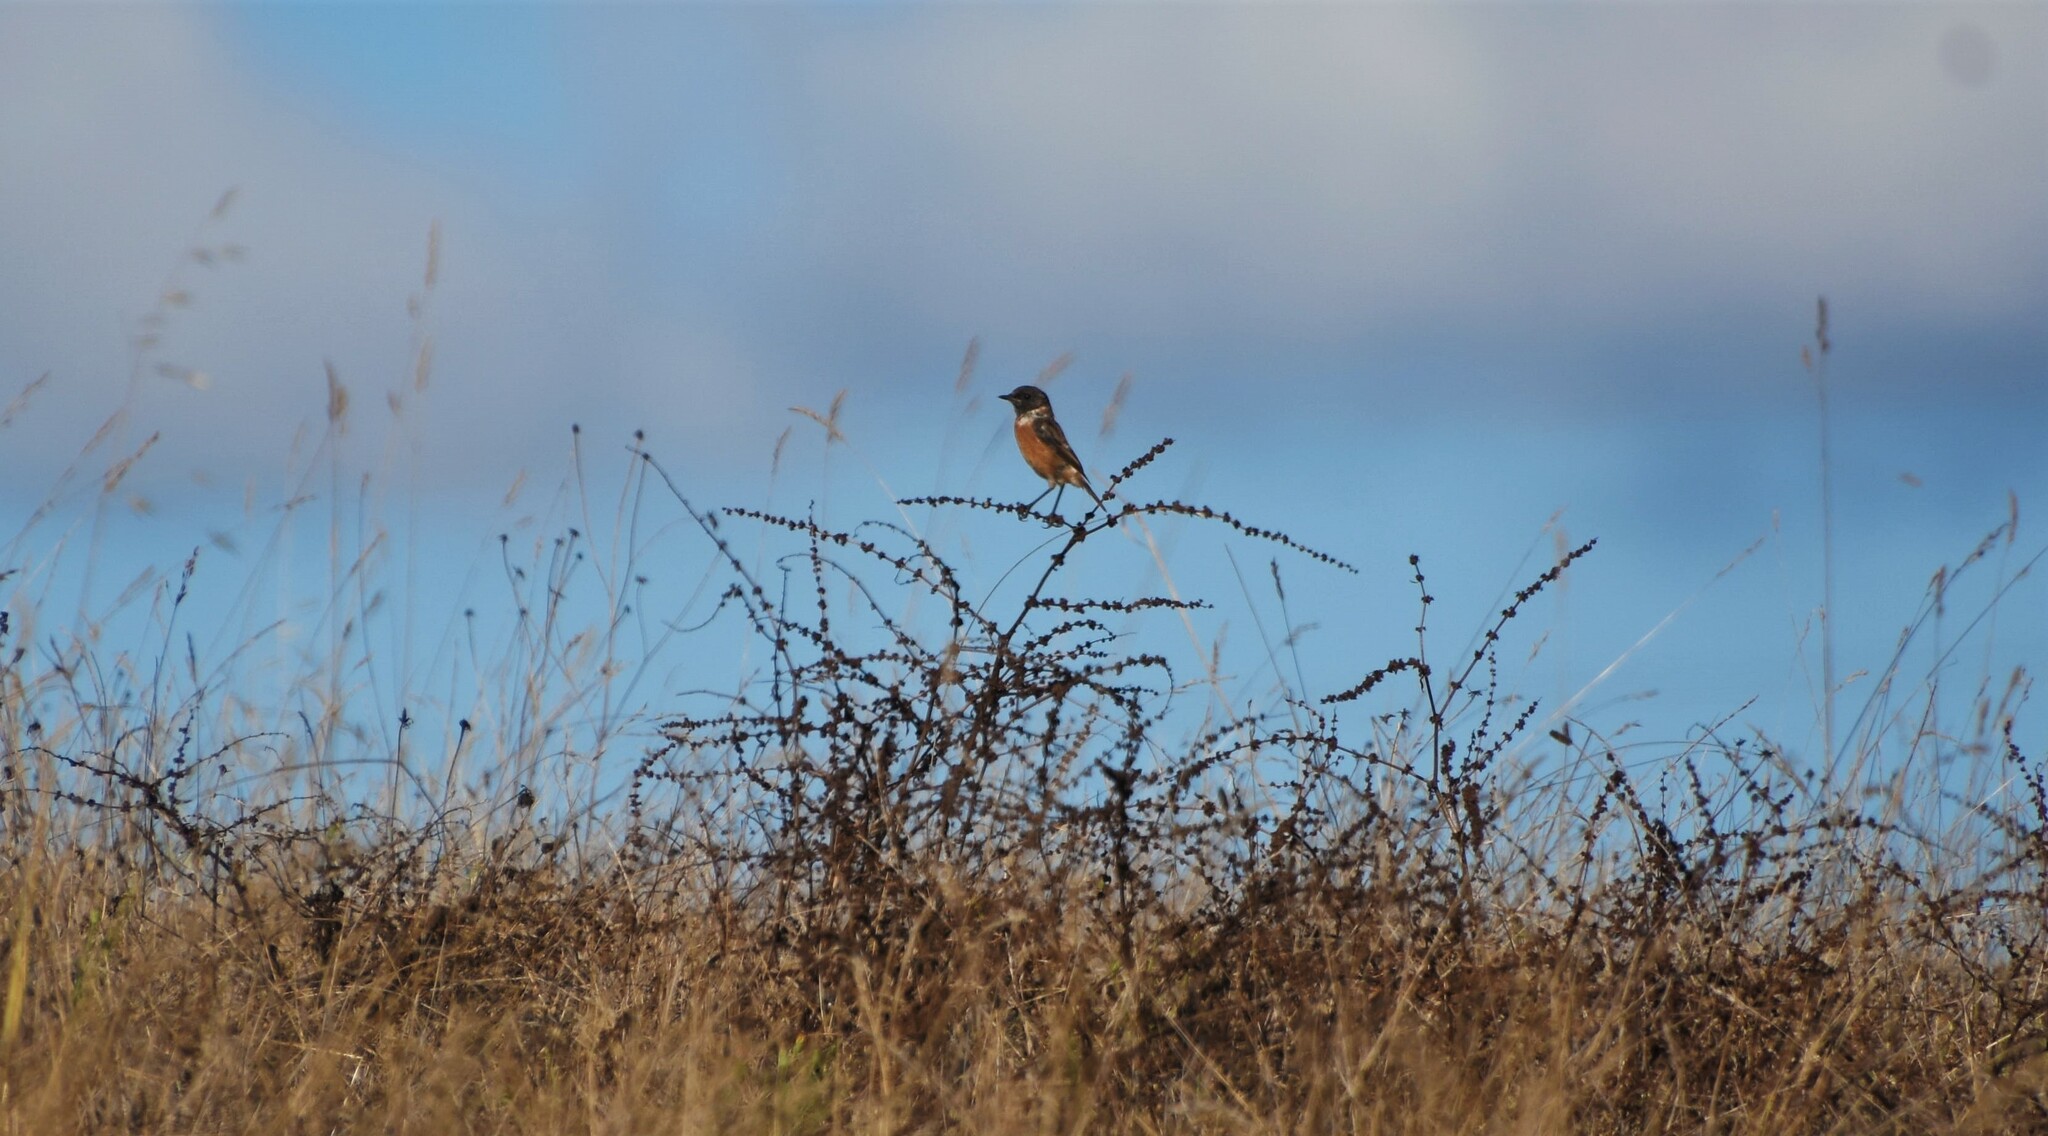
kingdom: Animalia
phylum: Chordata
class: Aves
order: Passeriformes
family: Muscicapidae
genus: Saxicola
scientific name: Saxicola rubicola
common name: European stonechat
